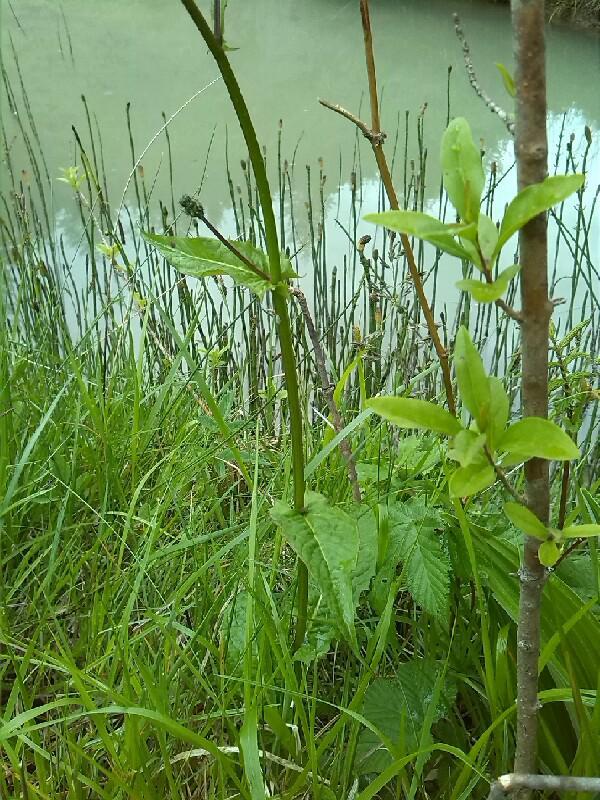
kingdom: Plantae
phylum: Tracheophyta
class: Magnoliopsida
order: Asterales
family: Asteraceae
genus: Crepis
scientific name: Crepis paludosa
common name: Marsh hawk's-beard
